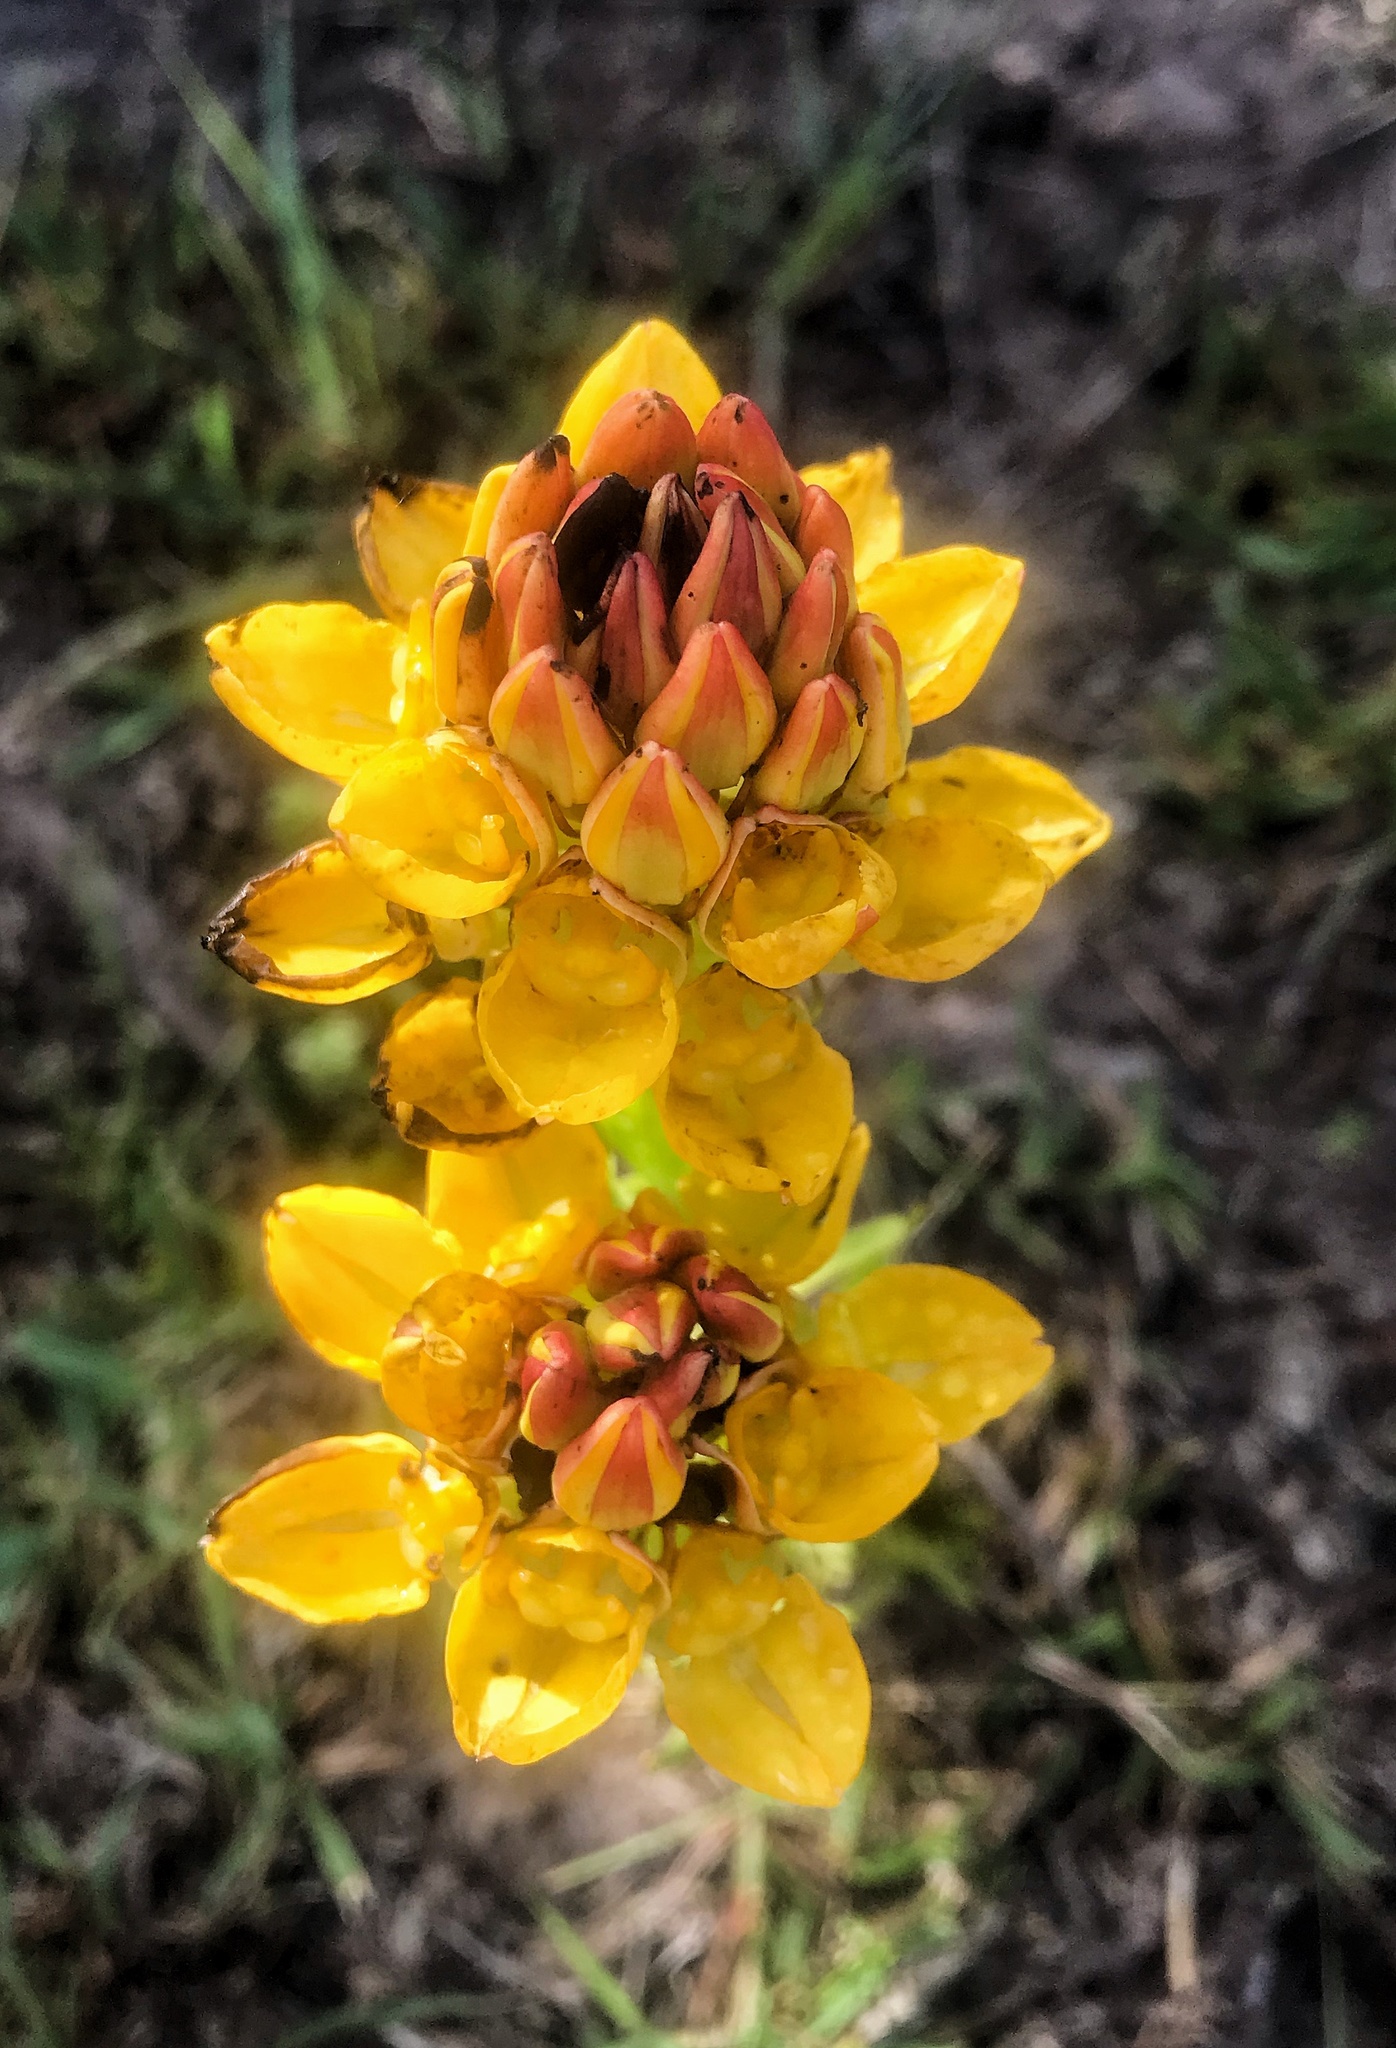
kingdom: Plantae
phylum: Tracheophyta
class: Liliopsida
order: Asparagales
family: Orchidaceae
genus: Ceratandra
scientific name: Ceratandra grandiflora
